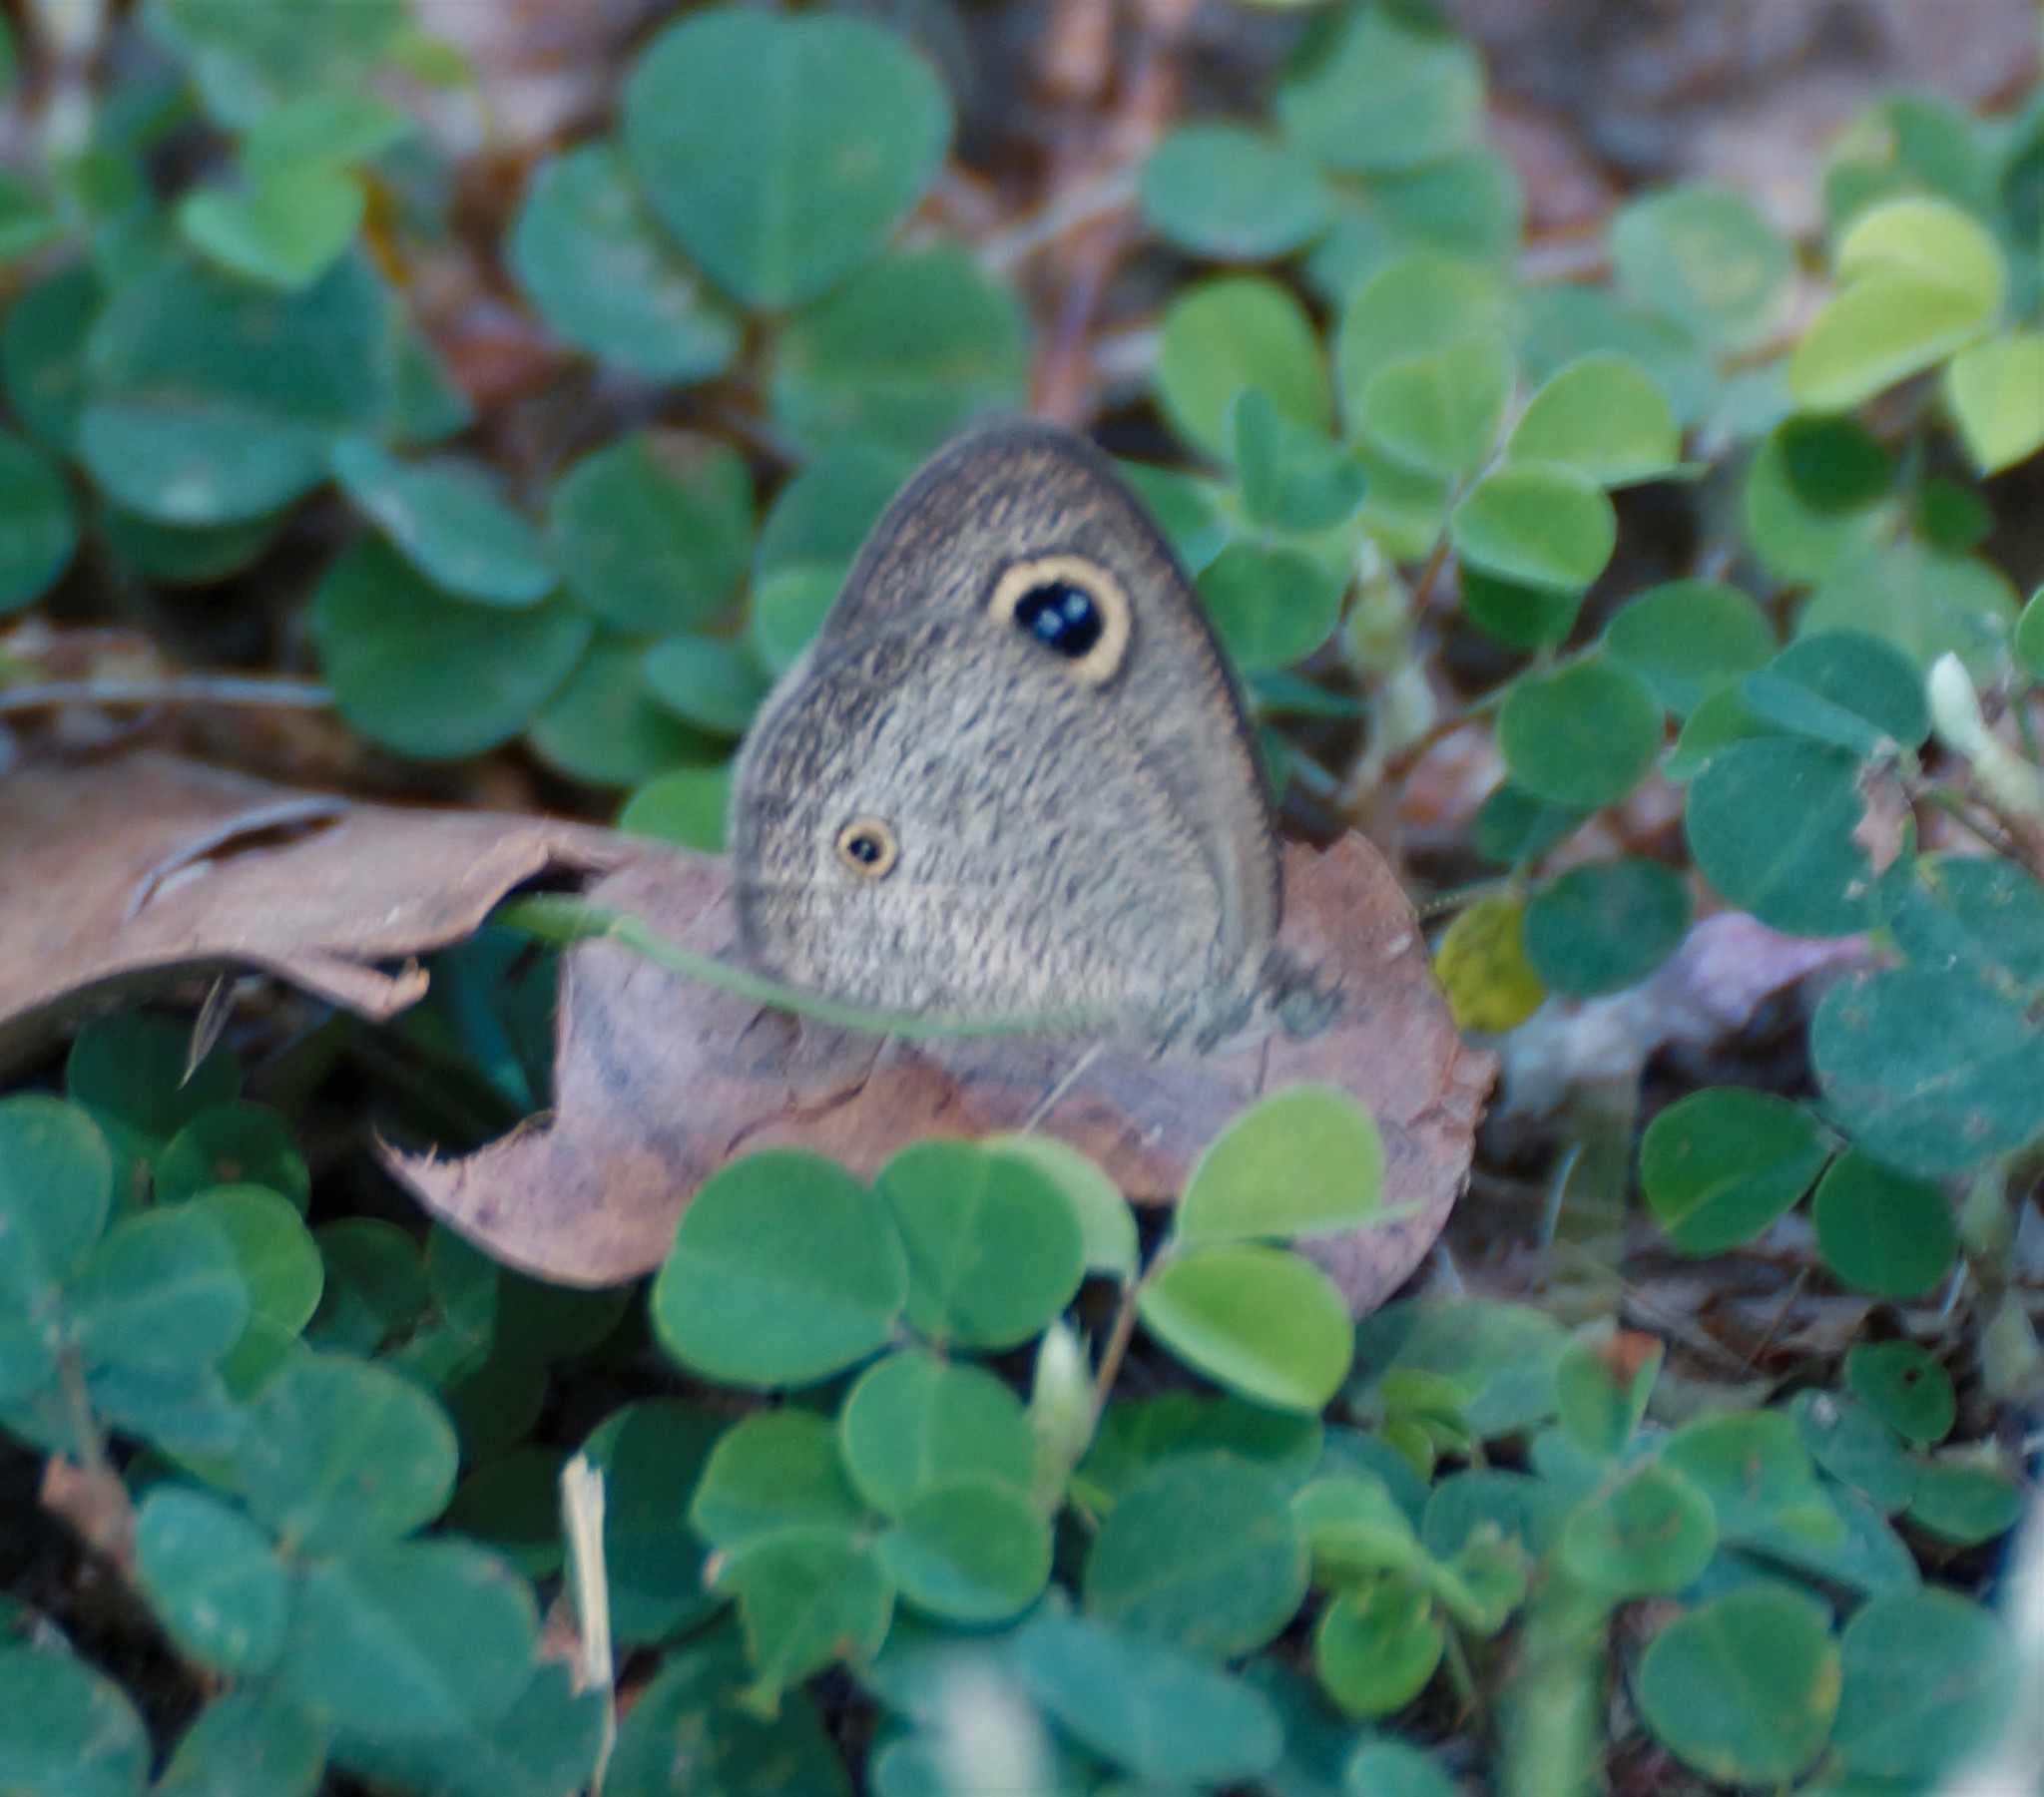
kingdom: Animalia
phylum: Arthropoda
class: Insecta
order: Lepidoptera
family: Nymphalidae
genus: Ypthima
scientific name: Ypthima arctous
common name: Dusky knight
